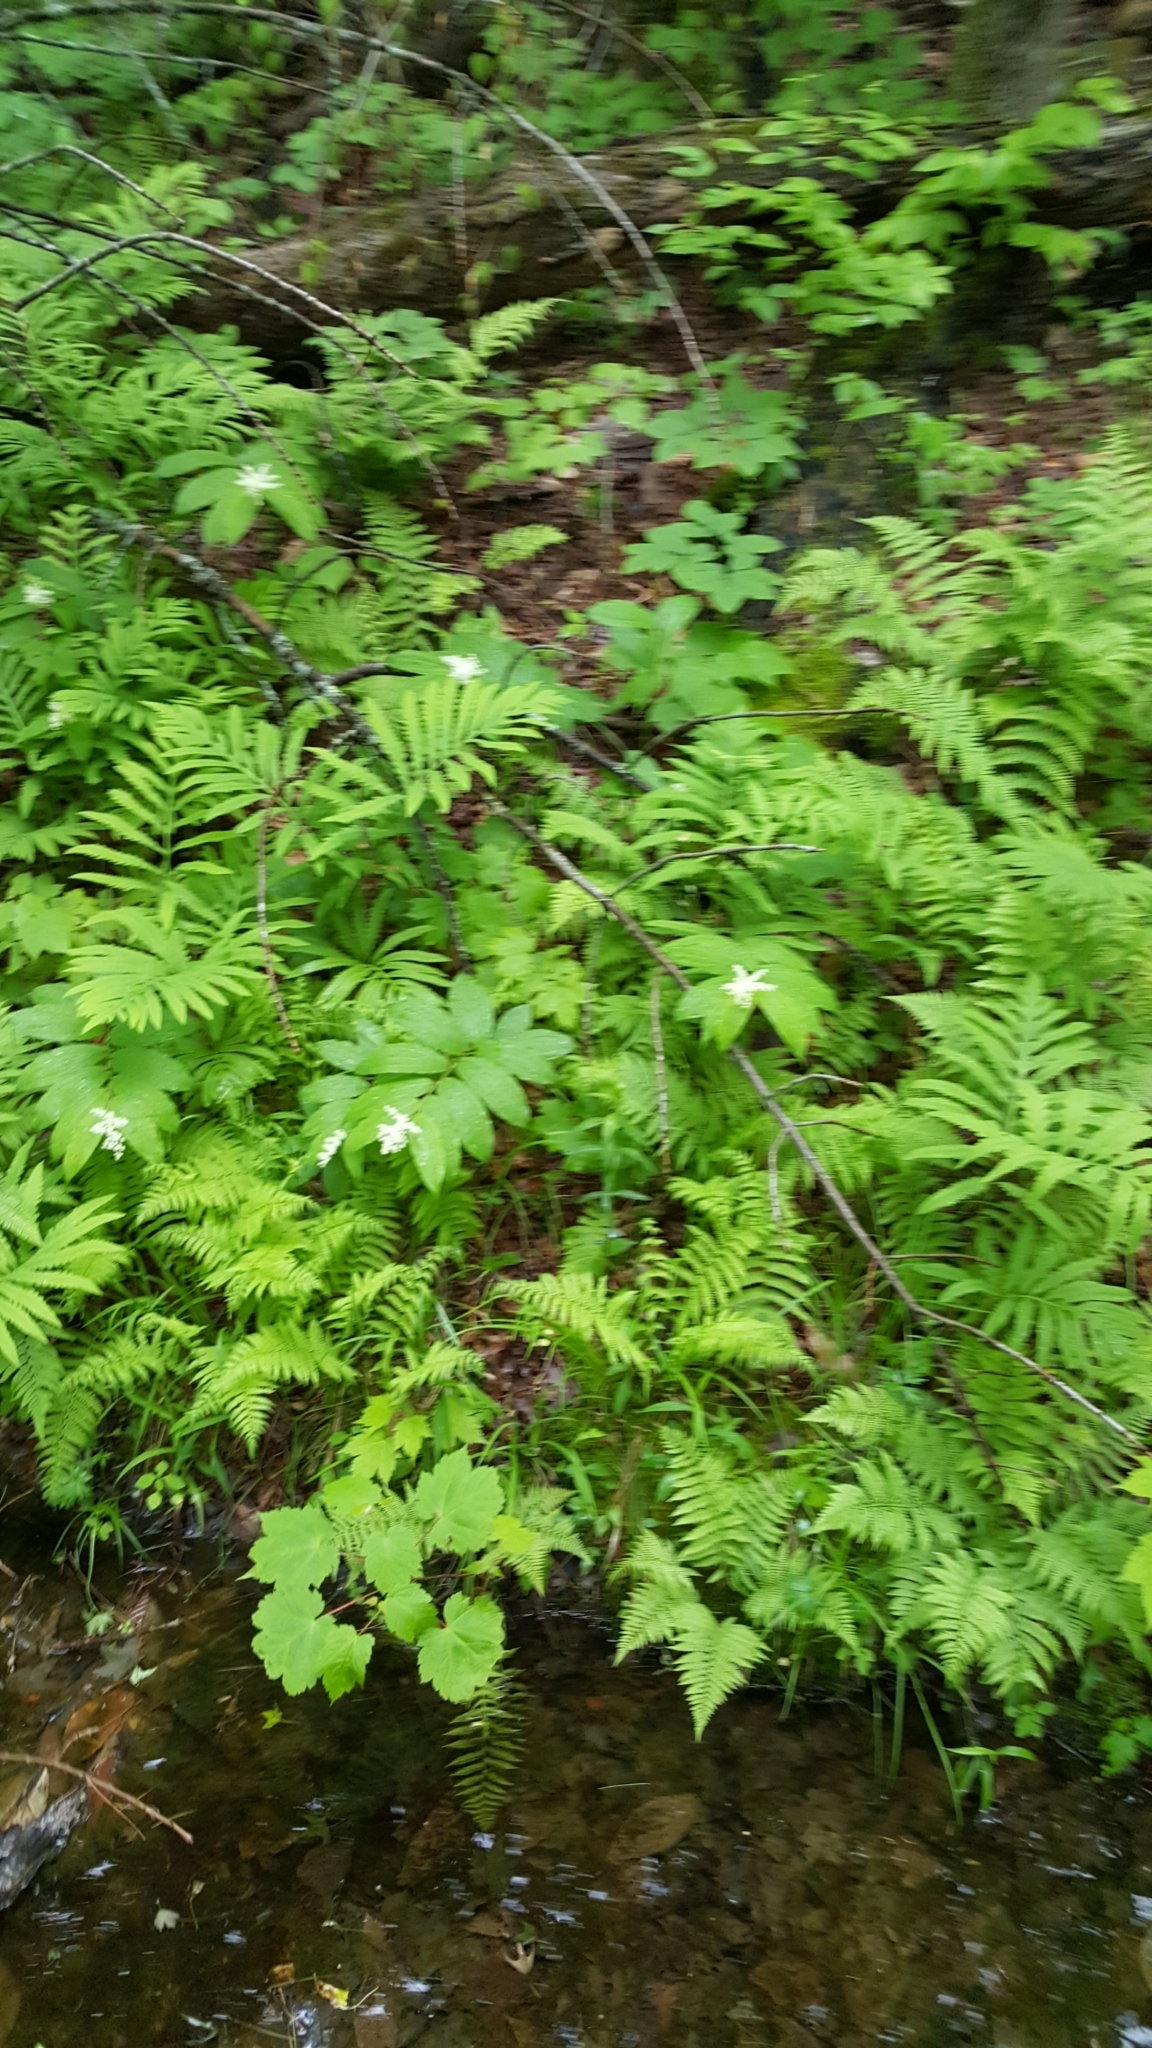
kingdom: Plantae
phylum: Tracheophyta
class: Liliopsida
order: Asparagales
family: Asparagaceae
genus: Maianthemum
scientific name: Maianthemum racemosum
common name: False spikenard
